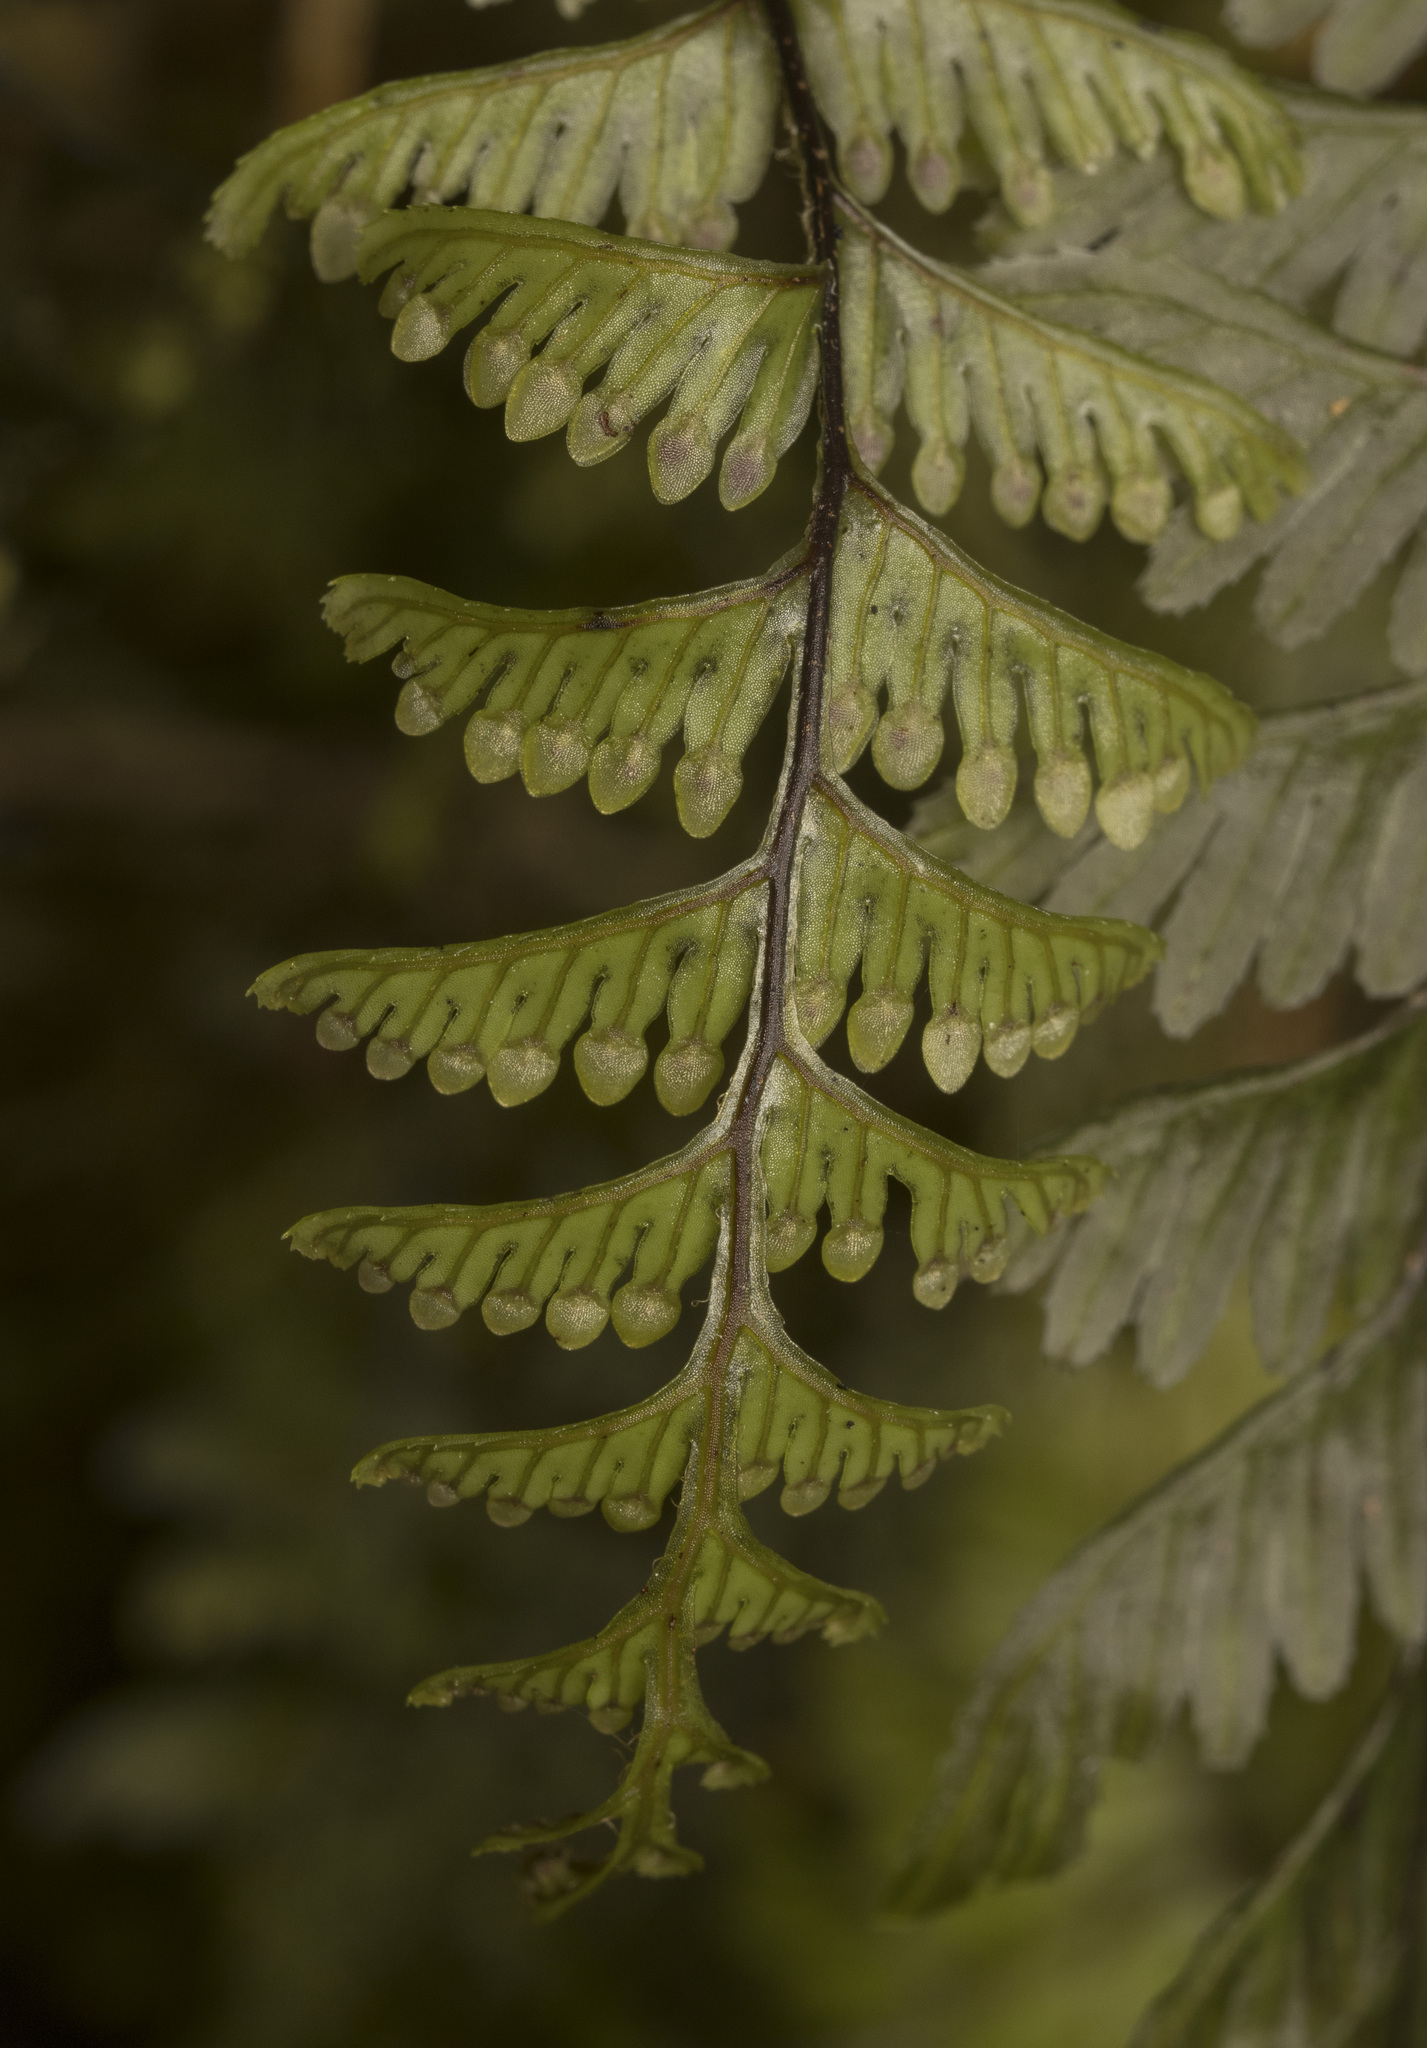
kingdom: Plantae
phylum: Tracheophyta
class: Polypodiopsida
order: Hymenophyllales
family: Hymenophyllaceae
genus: Hymenophyllum
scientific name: Hymenophyllum pectinatum
